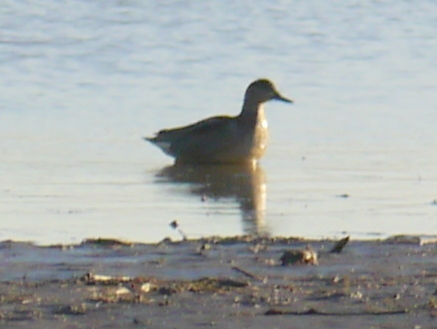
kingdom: Animalia
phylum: Chordata
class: Aves
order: Anseriformes
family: Anatidae
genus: Anas
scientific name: Anas crecca
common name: Eurasian teal
